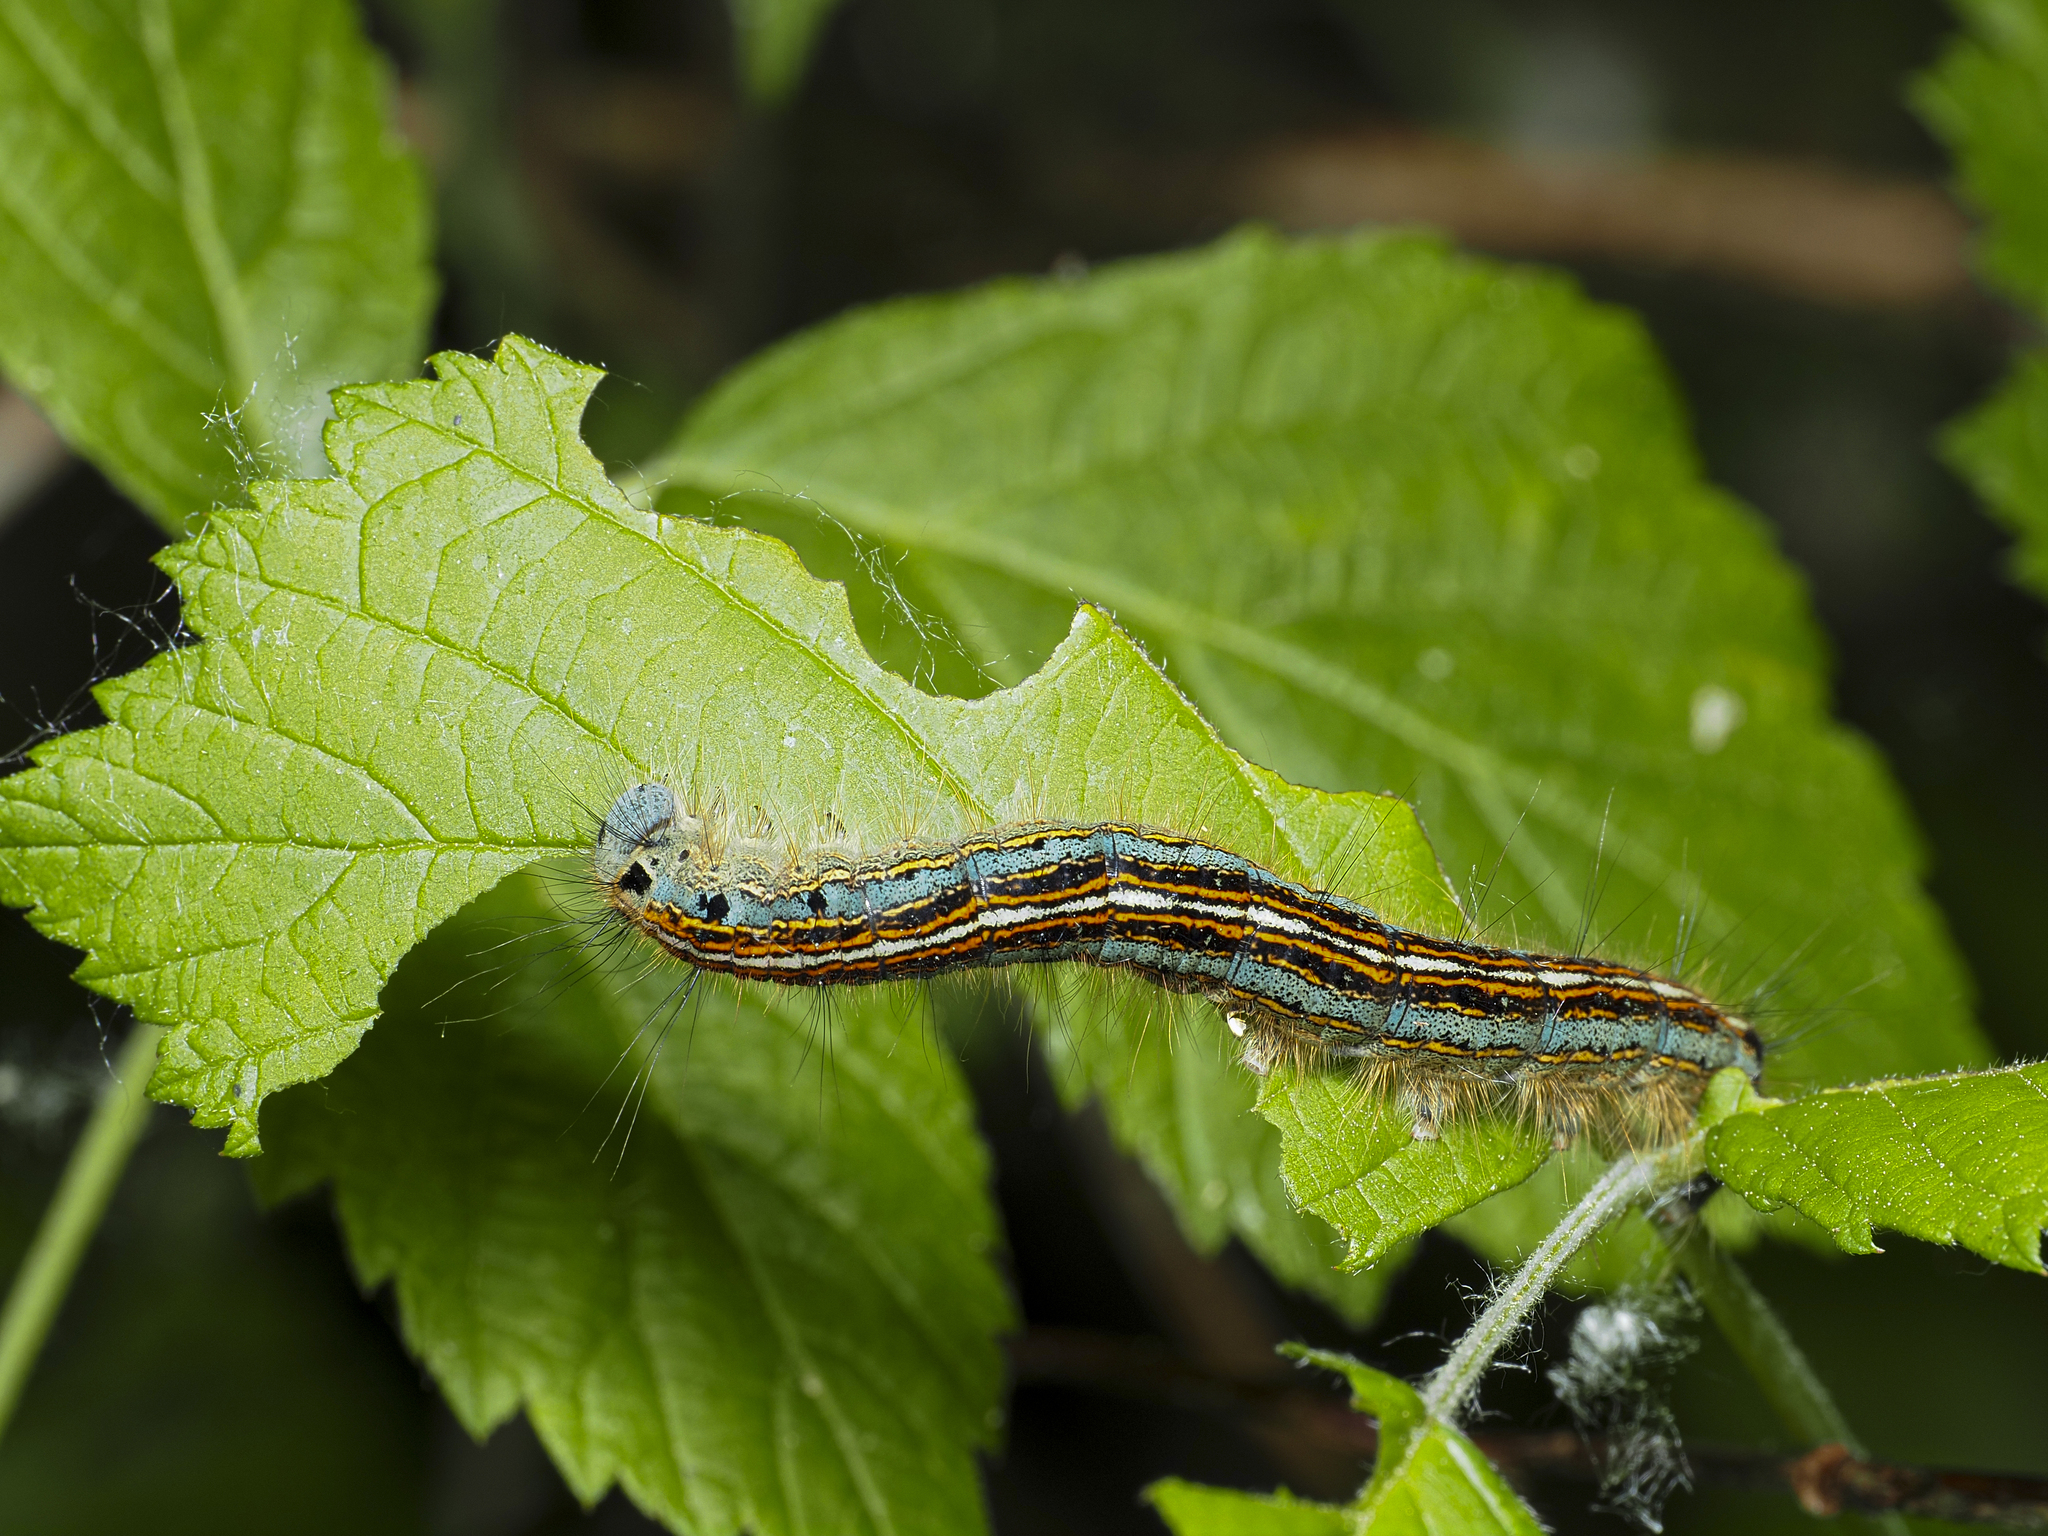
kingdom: Animalia
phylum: Arthropoda
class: Insecta
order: Lepidoptera
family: Lasiocampidae
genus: Malacosoma
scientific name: Malacosoma neustria
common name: The lackey
